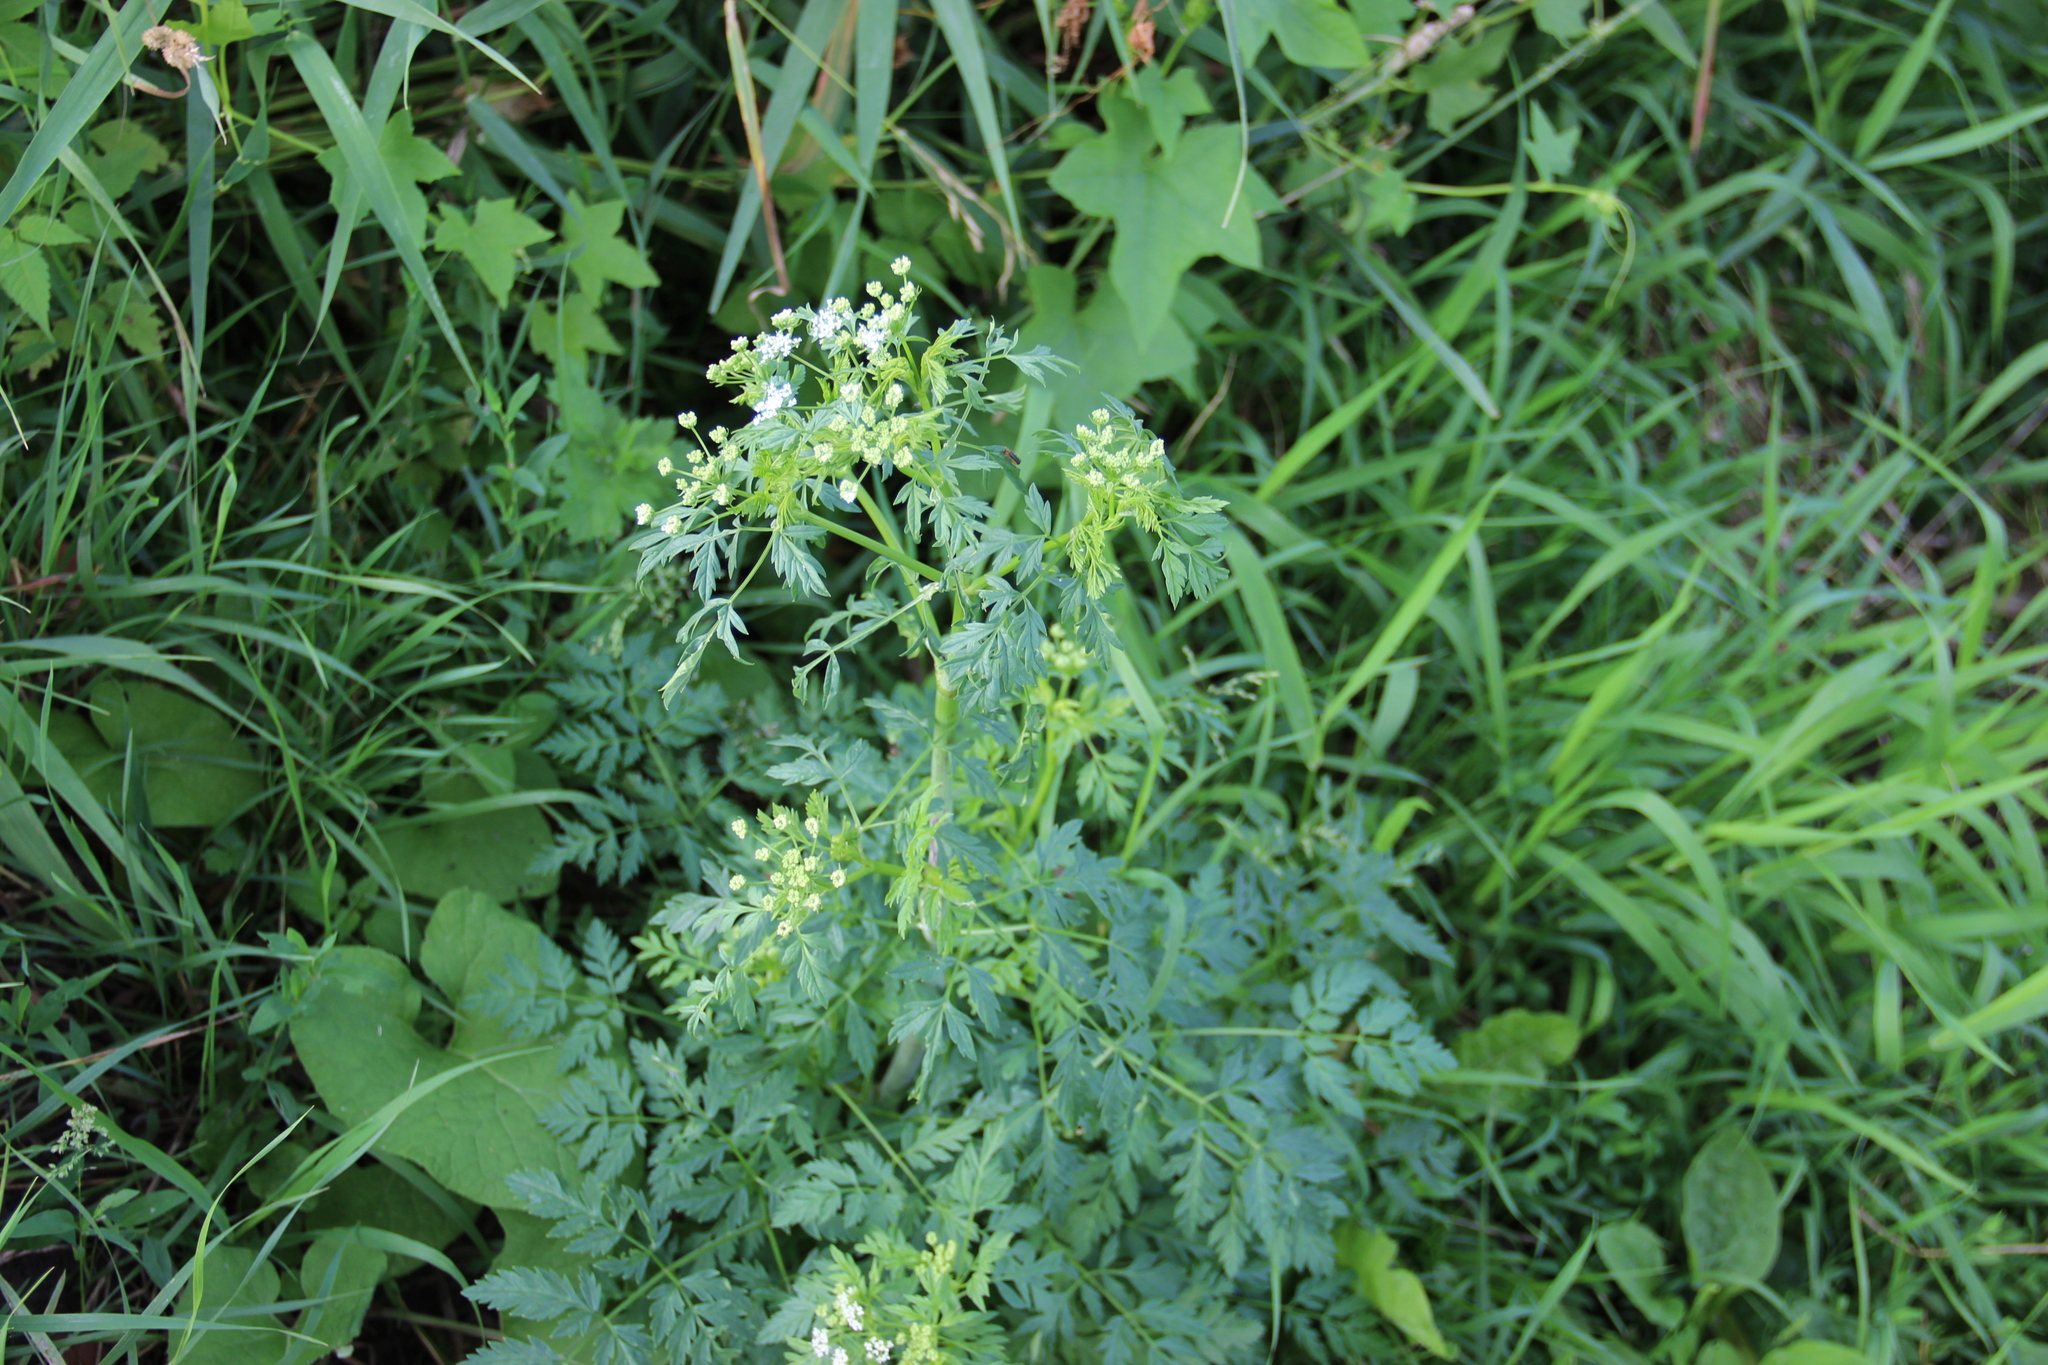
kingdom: Plantae
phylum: Tracheophyta
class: Magnoliopsida
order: Apiales
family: Apiaceae
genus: Conium
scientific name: Conium maculatum
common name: Hemlock
